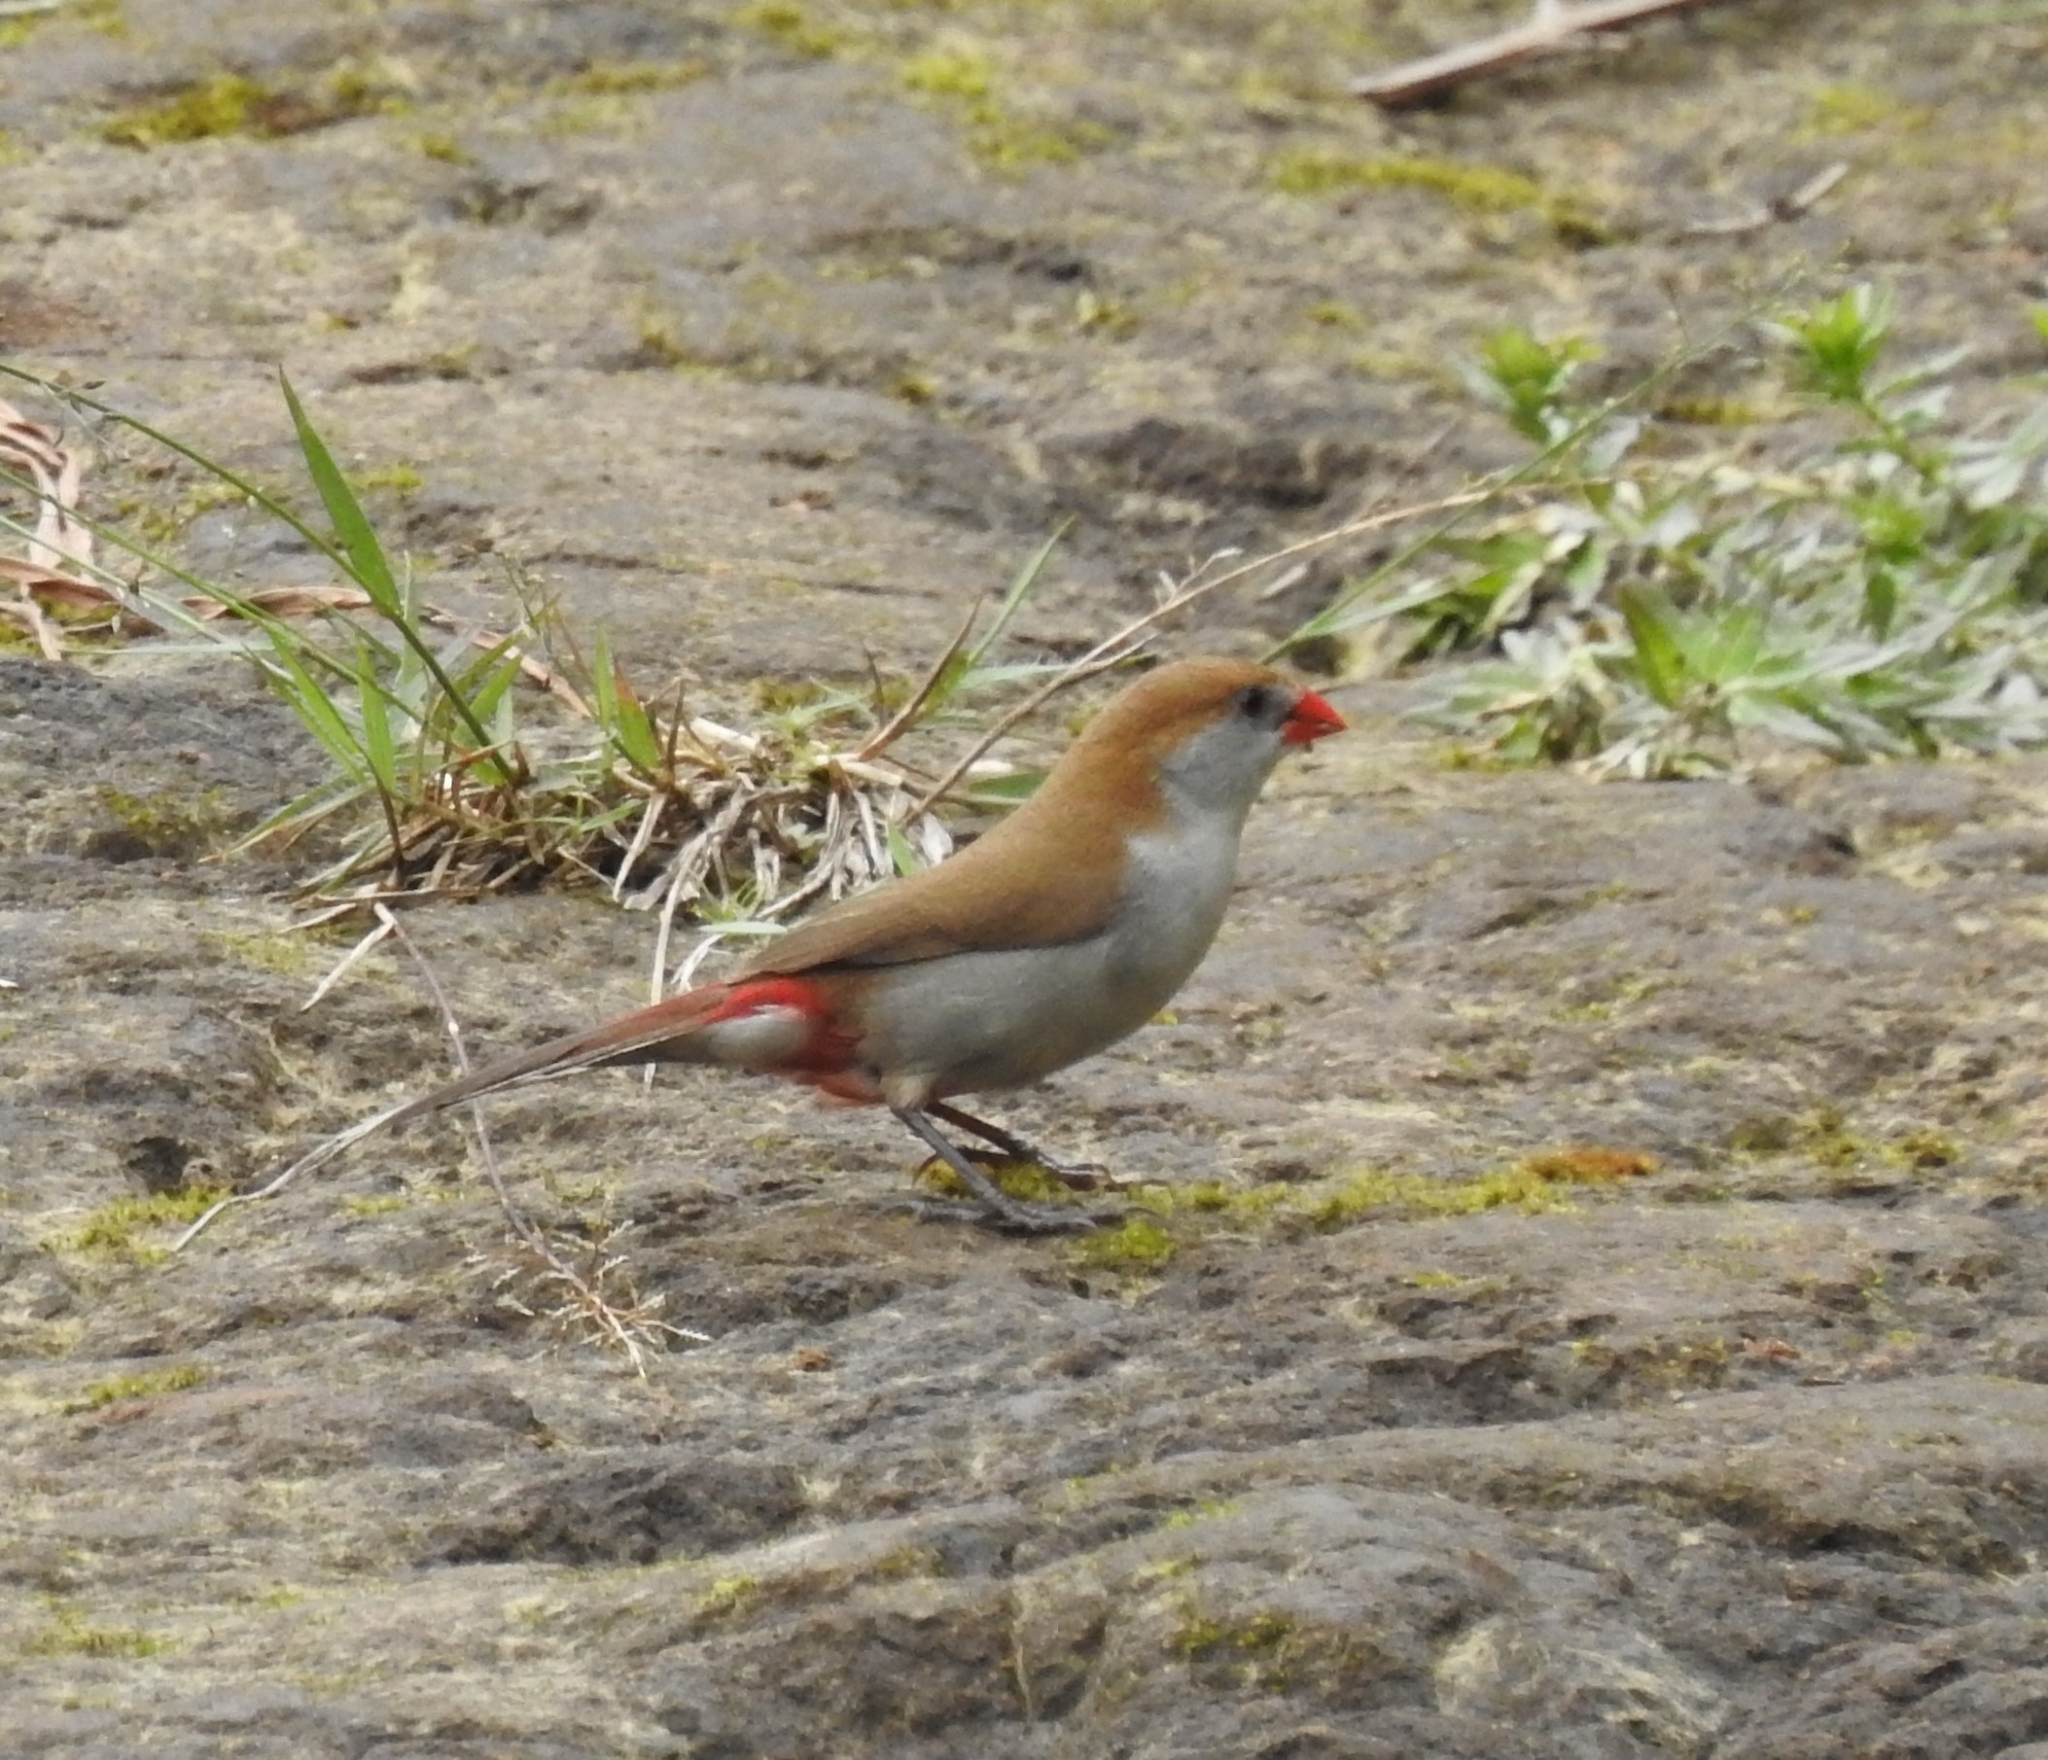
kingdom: Animalia
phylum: Chordata
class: Aves
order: Passeriformes
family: Estrildidae
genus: Estrilda
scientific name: Estrilda paludicola
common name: Fawn-breasted waxbill
